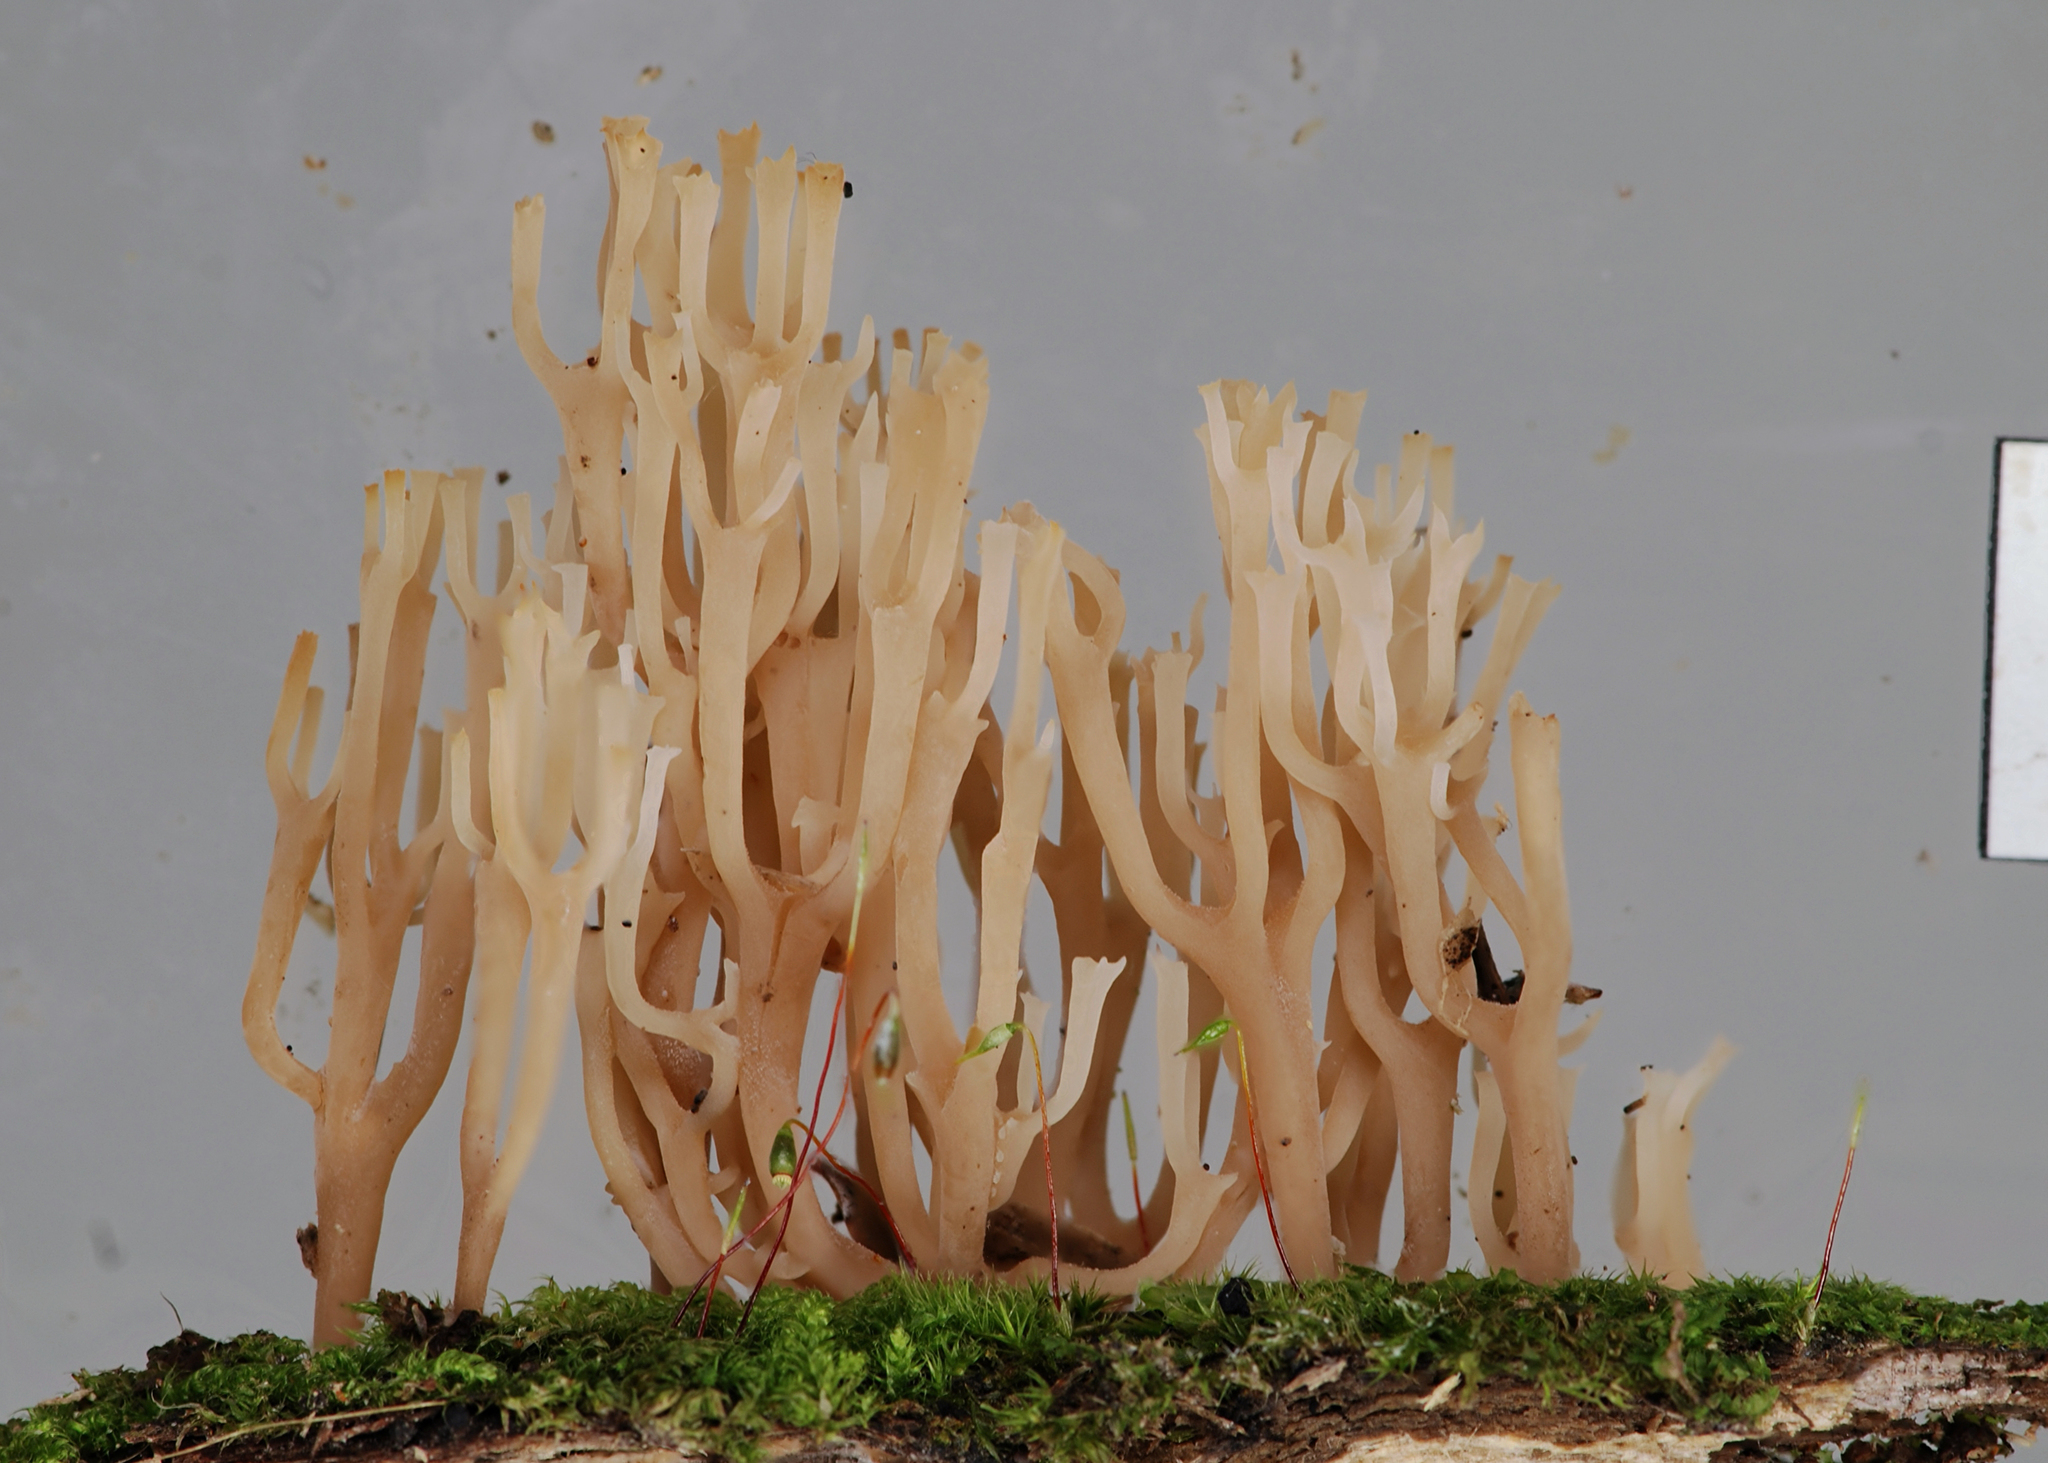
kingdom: Fungi
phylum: Basidiomycota
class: Agaricomycetes
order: Russulales
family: Auriscalpiaceae
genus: Artomyces
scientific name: Artomyces adrienneae
